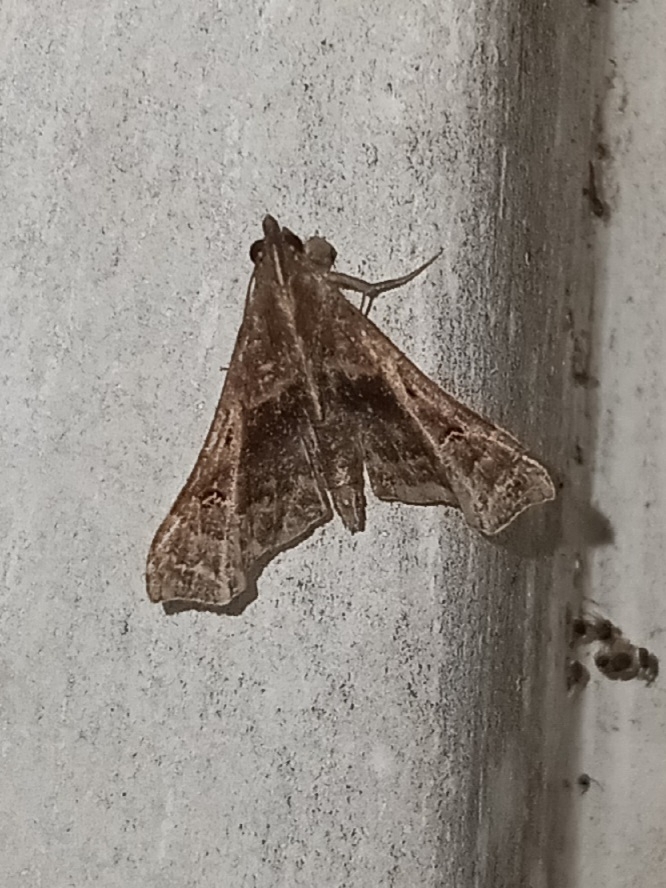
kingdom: Animalia
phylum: Arthropoda
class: Insecta
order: Lepidoptera
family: Erebidae
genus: Palthis
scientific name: Palthis asopialis
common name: Faint-spotted palthis moth
